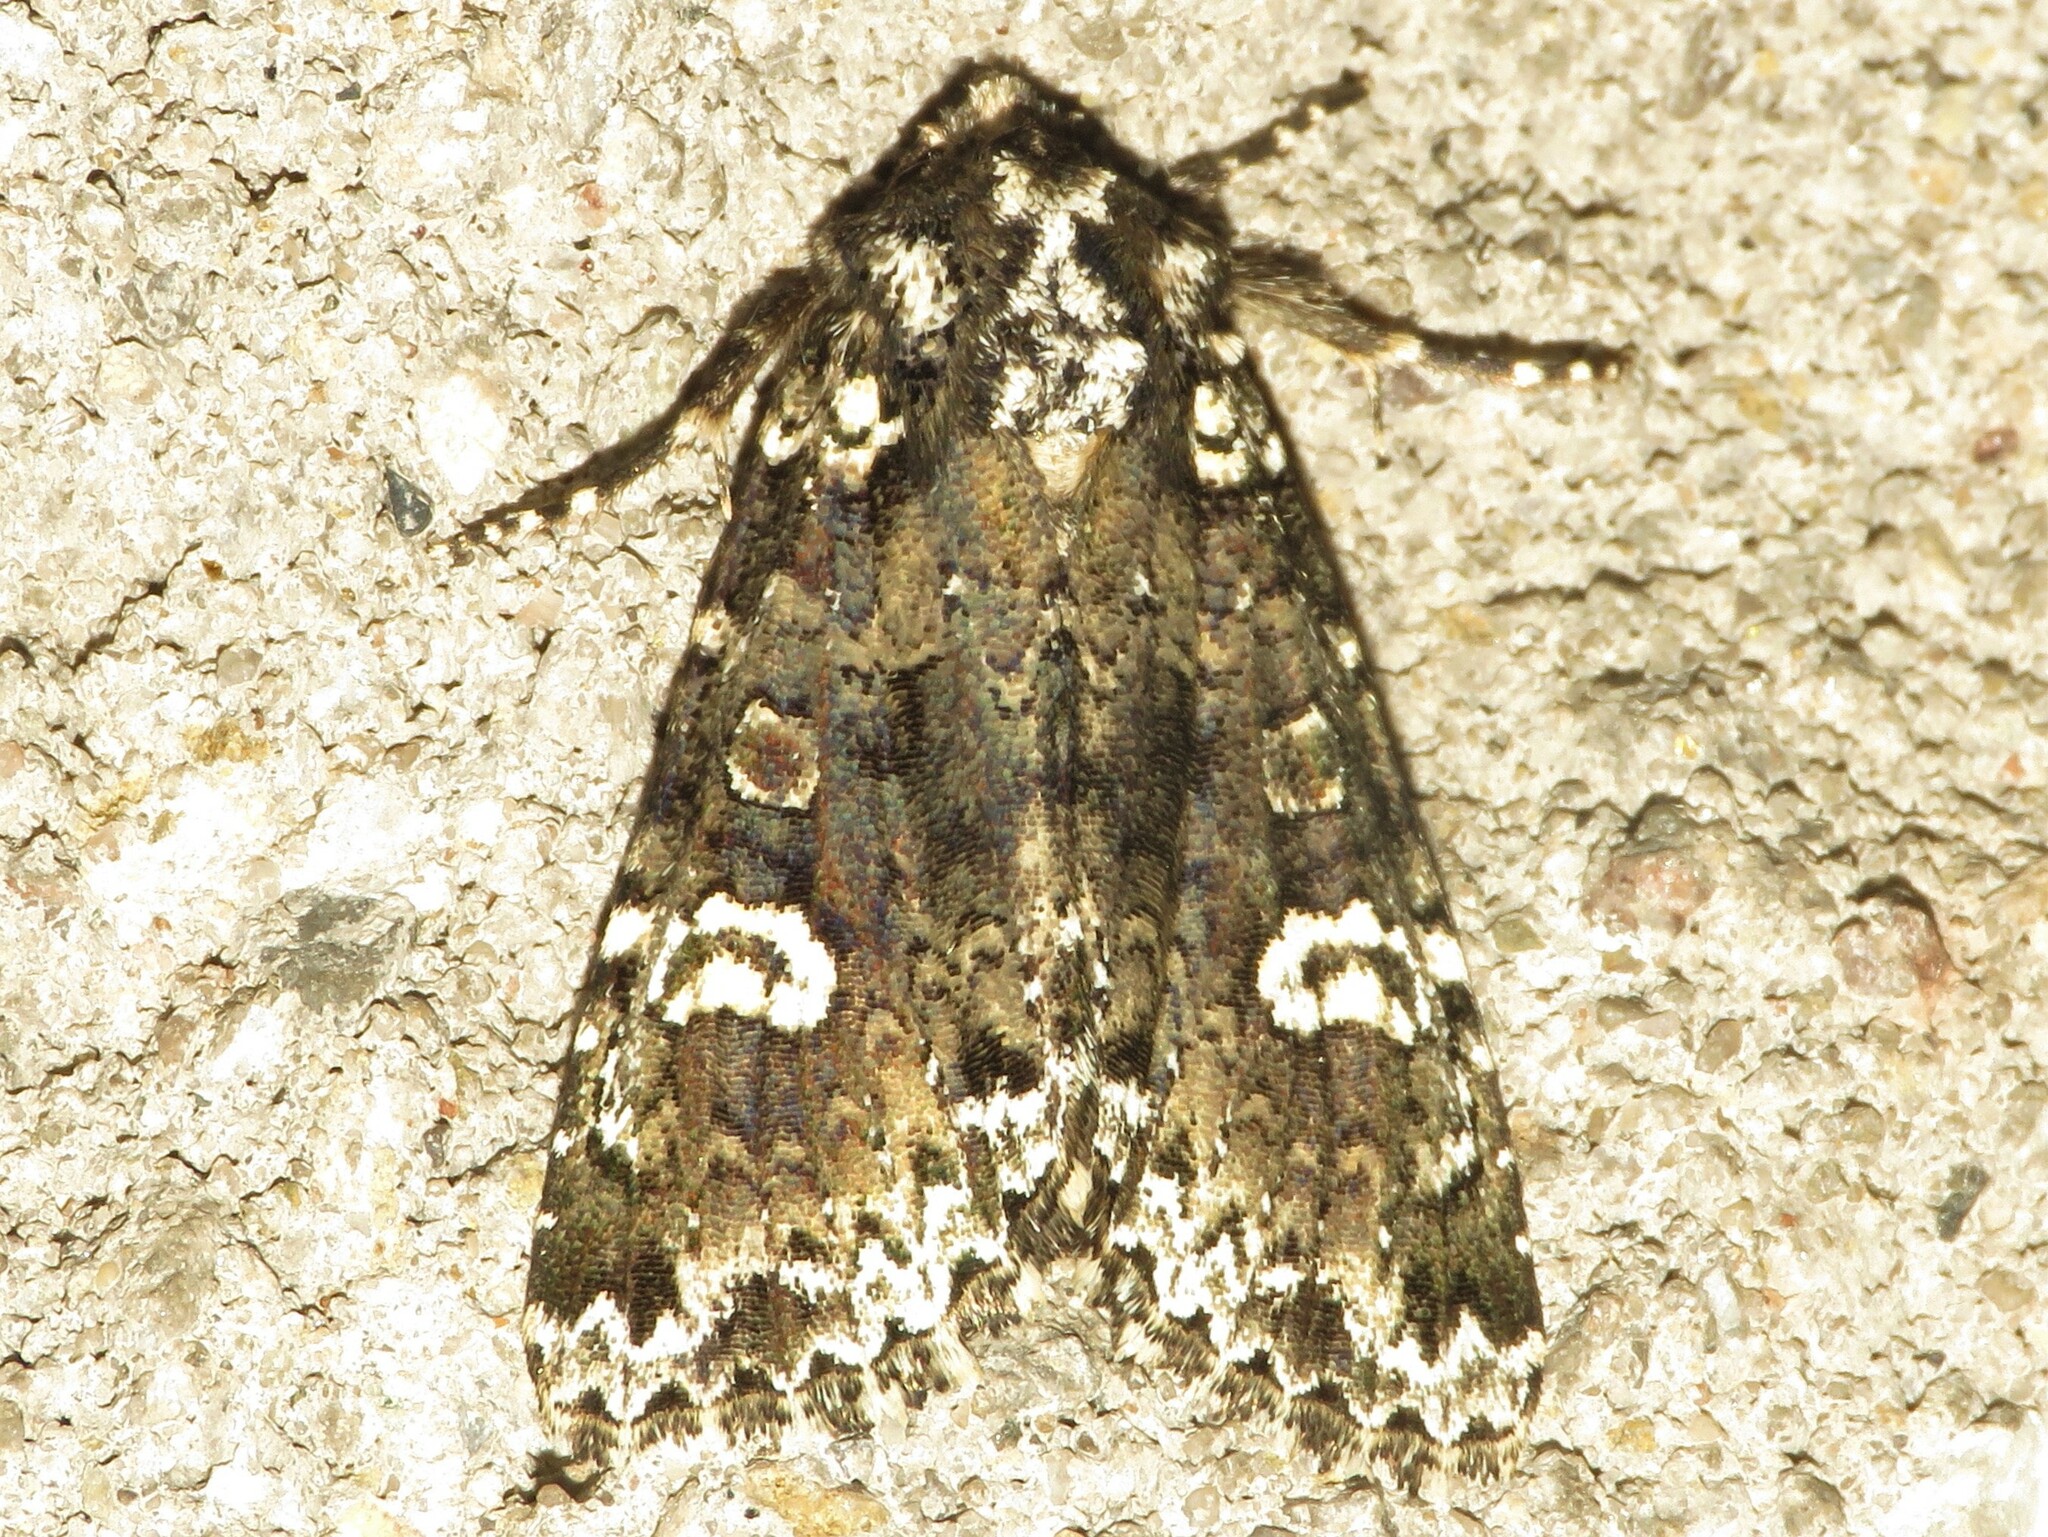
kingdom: Animalia
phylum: Arthropoda
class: Insecta
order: Lepidoptera
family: Noctuidae
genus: Melanchra
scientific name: Melanchra adjuncta
